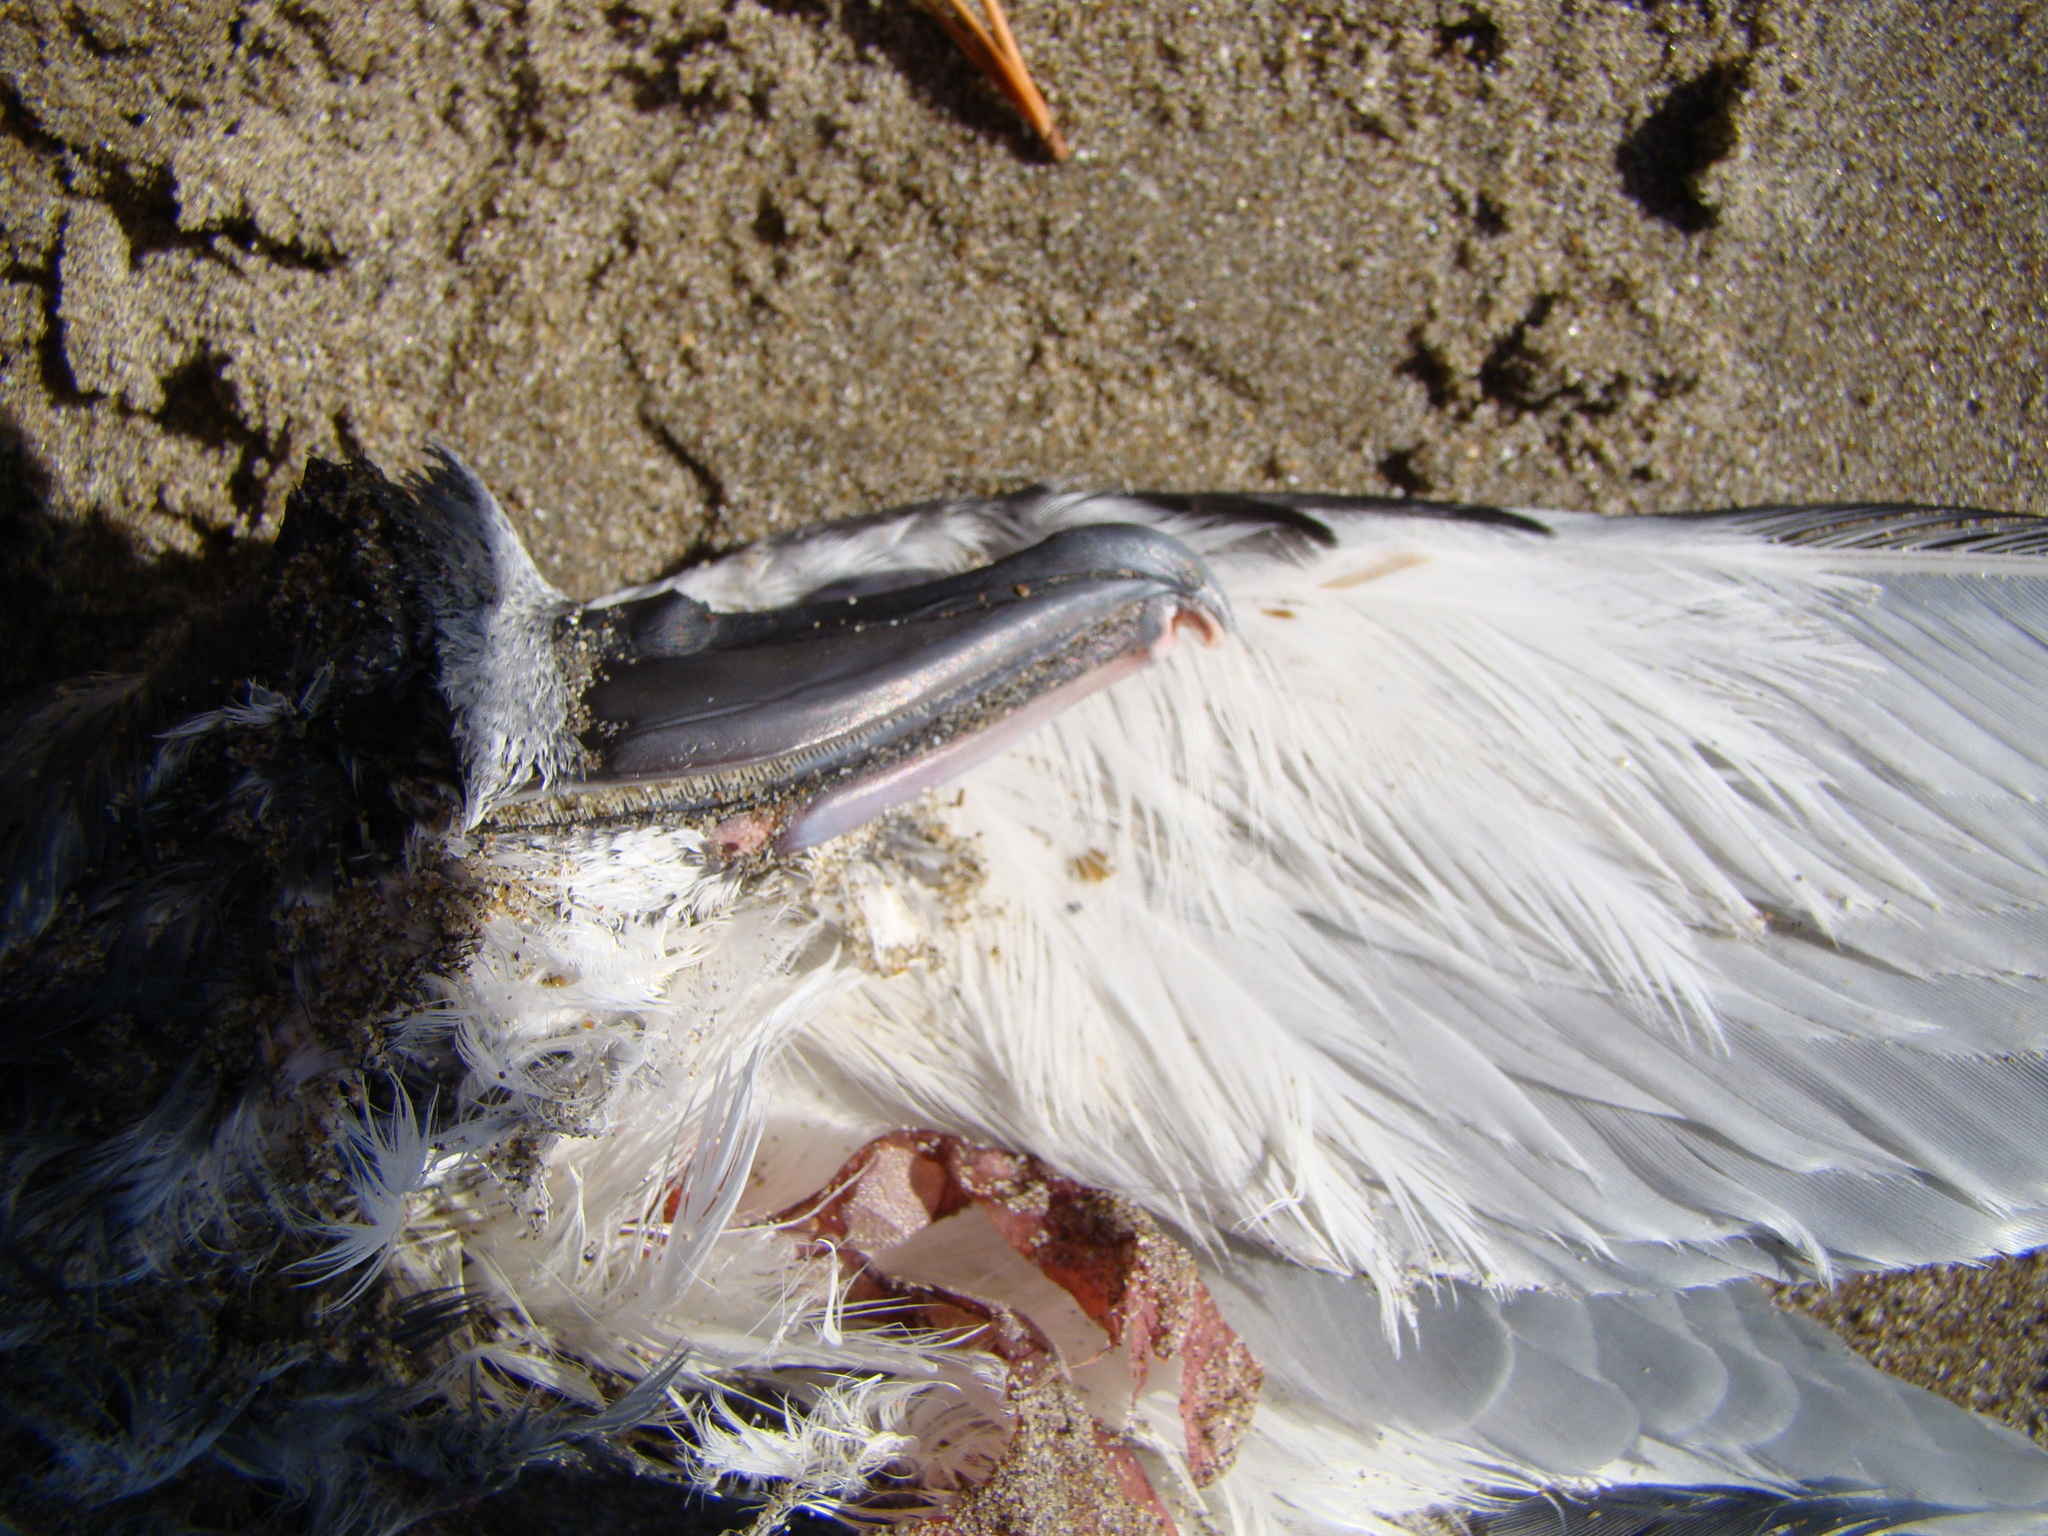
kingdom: Animalia
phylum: Chordata
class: Aves
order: Procellariiformes
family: Procellariidae
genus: Pachyptila
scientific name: Pachyptila vittata
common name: Broad-billed prion
